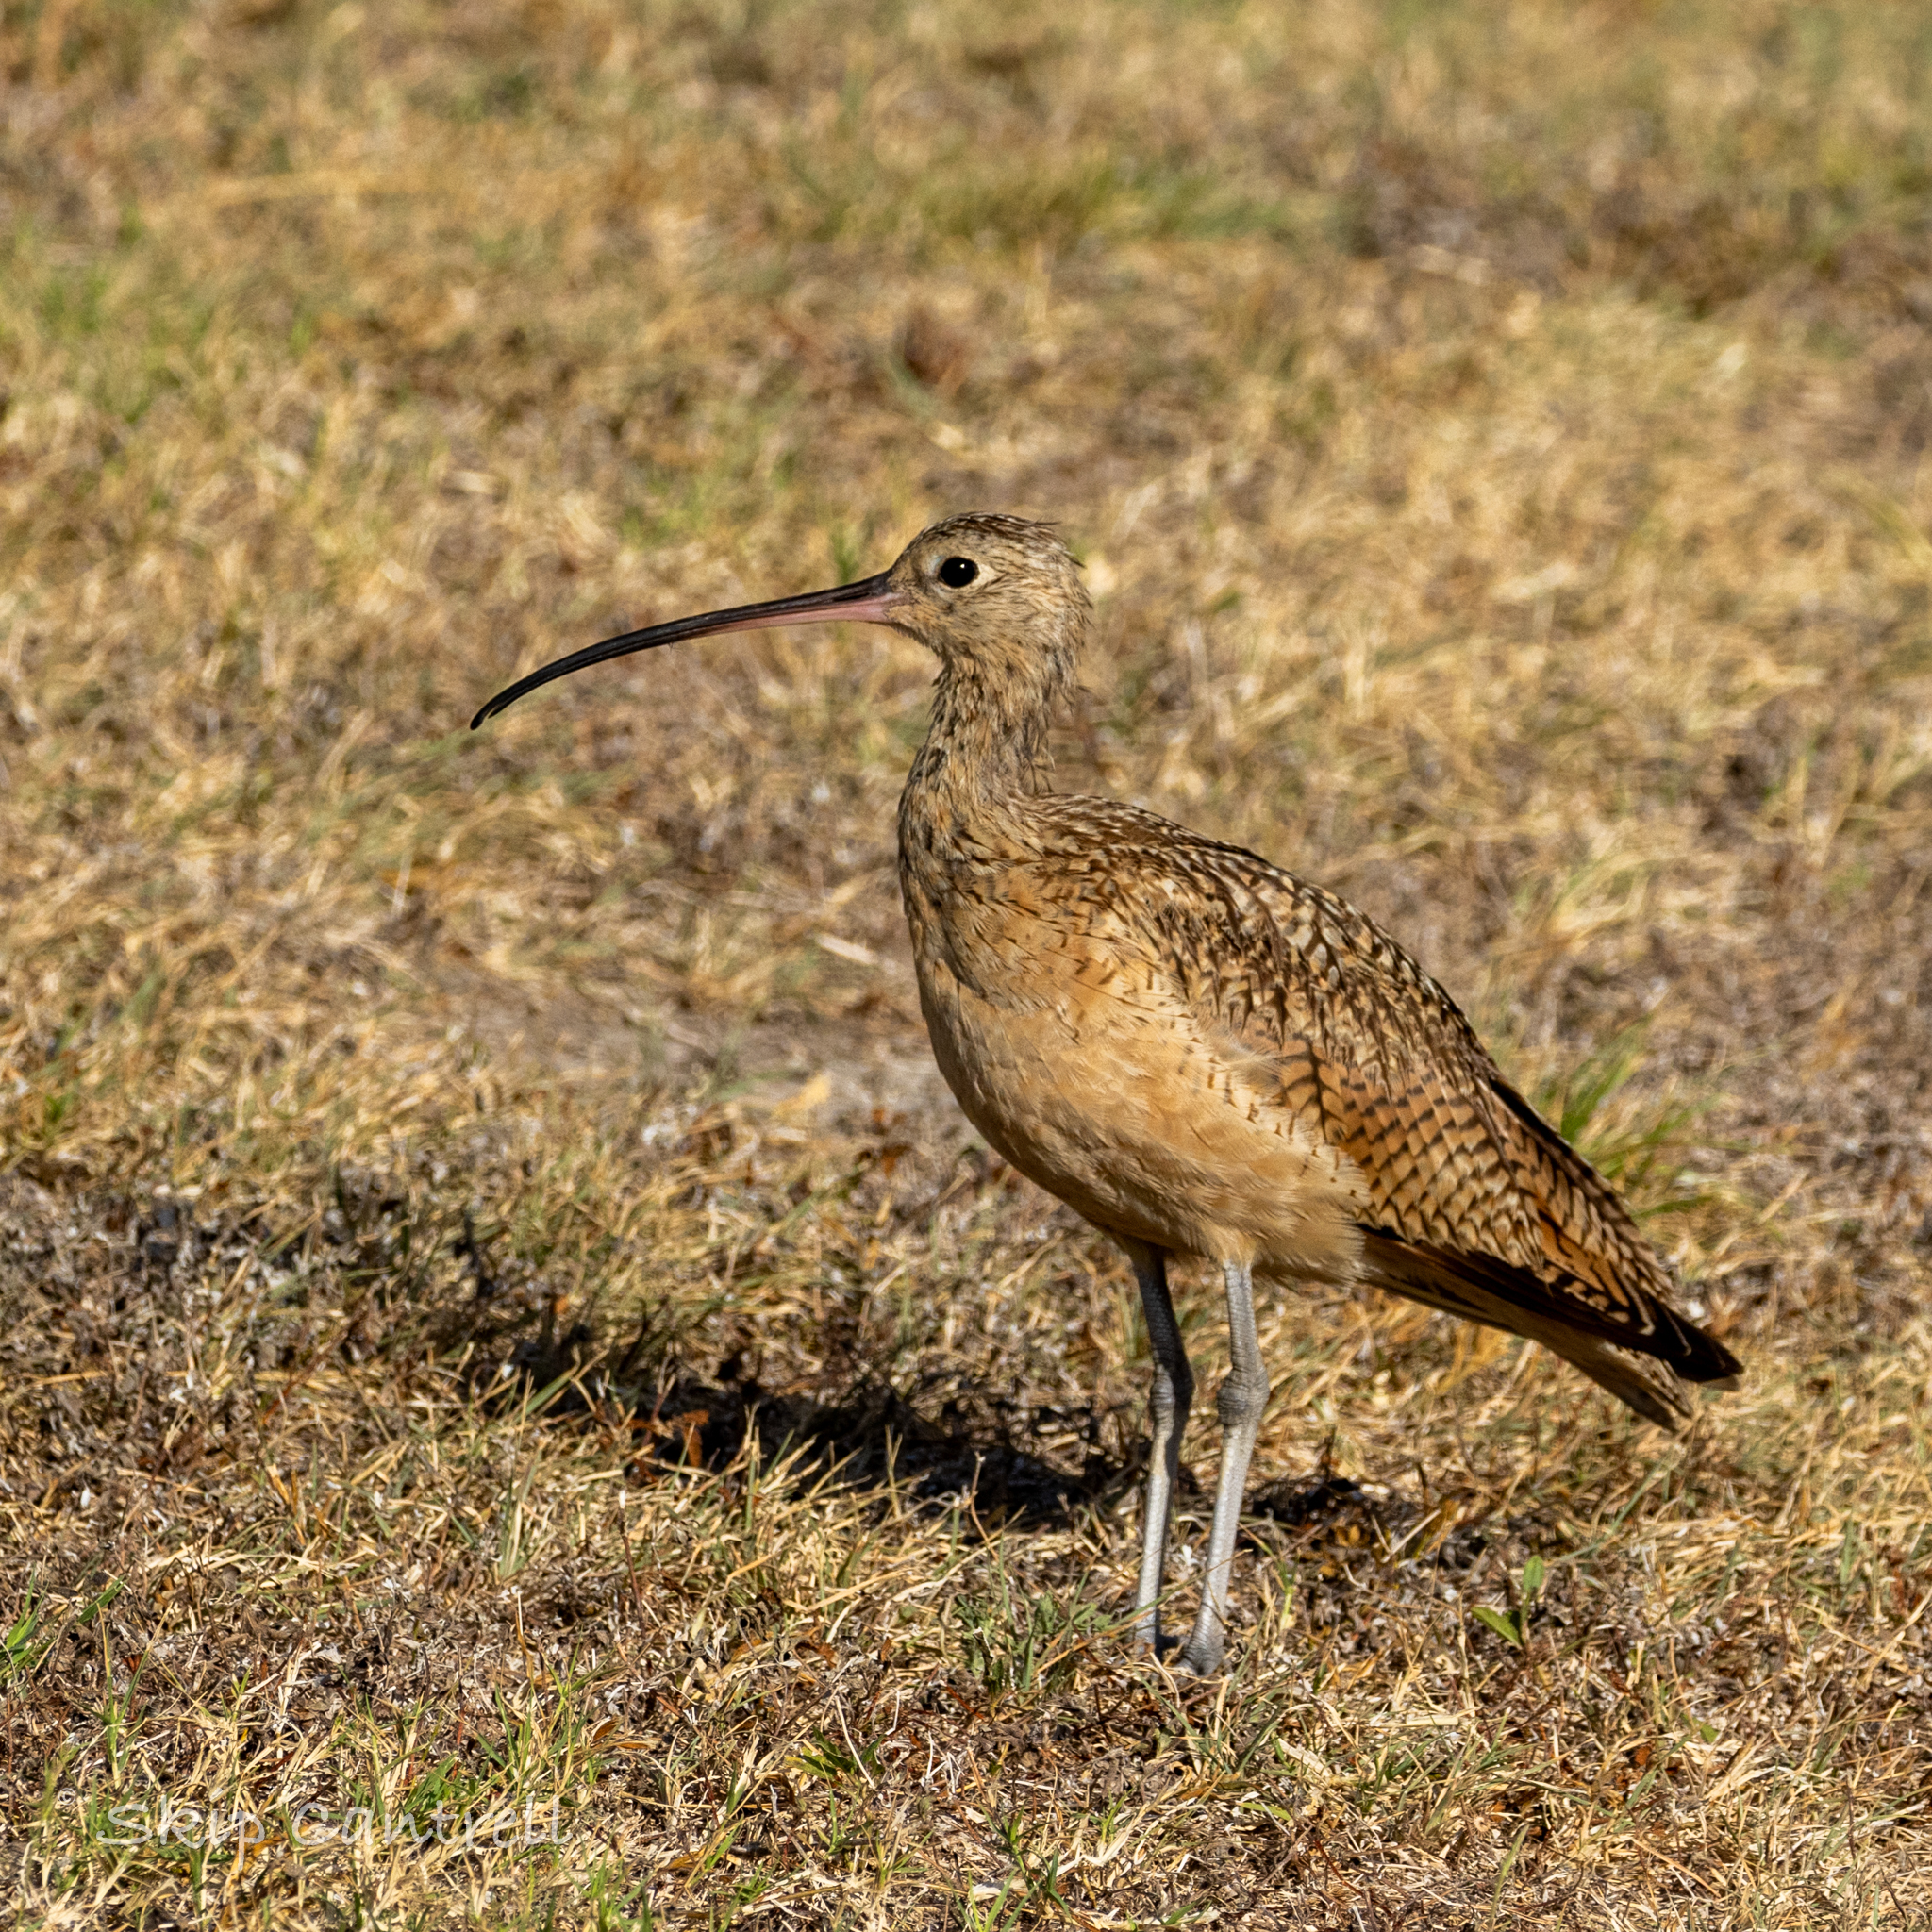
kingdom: Animalia
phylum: Chordata
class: Aves
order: Charadriiformes
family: Scolopacidae
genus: Numenius
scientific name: Numenius americanus
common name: Long-billed curlew
